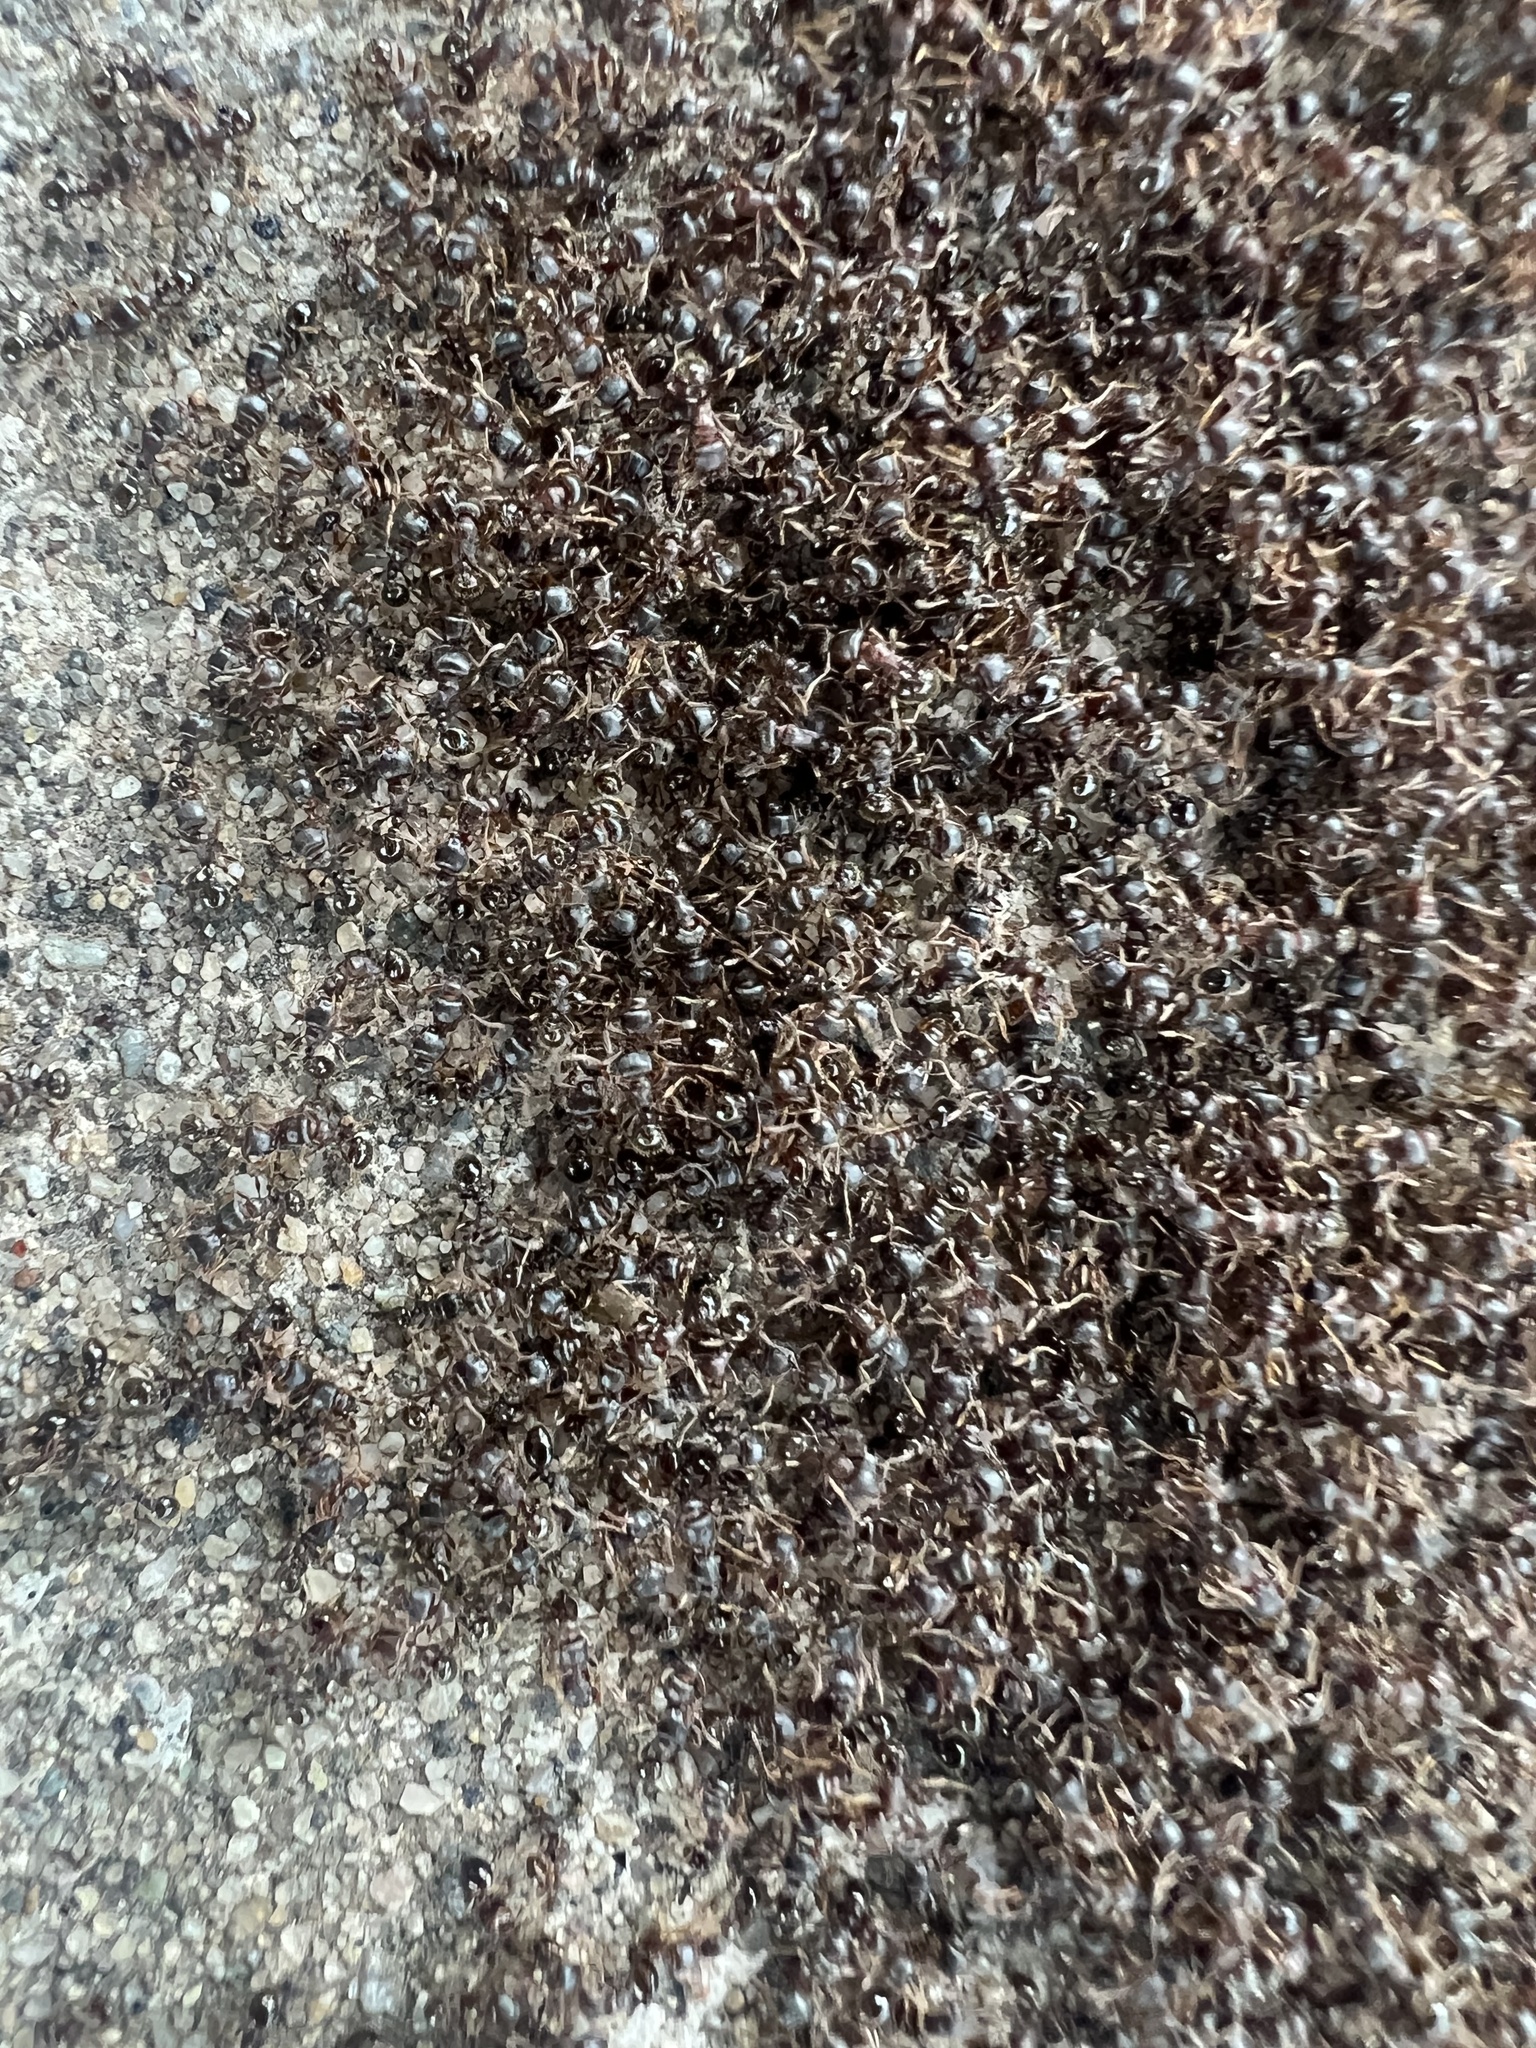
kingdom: Animalia
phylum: Arthropoda
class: Insecta
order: Hymenoptera
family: Formicidae
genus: Tetramorium
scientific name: Tetramorium immigrans
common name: Pavement ant
